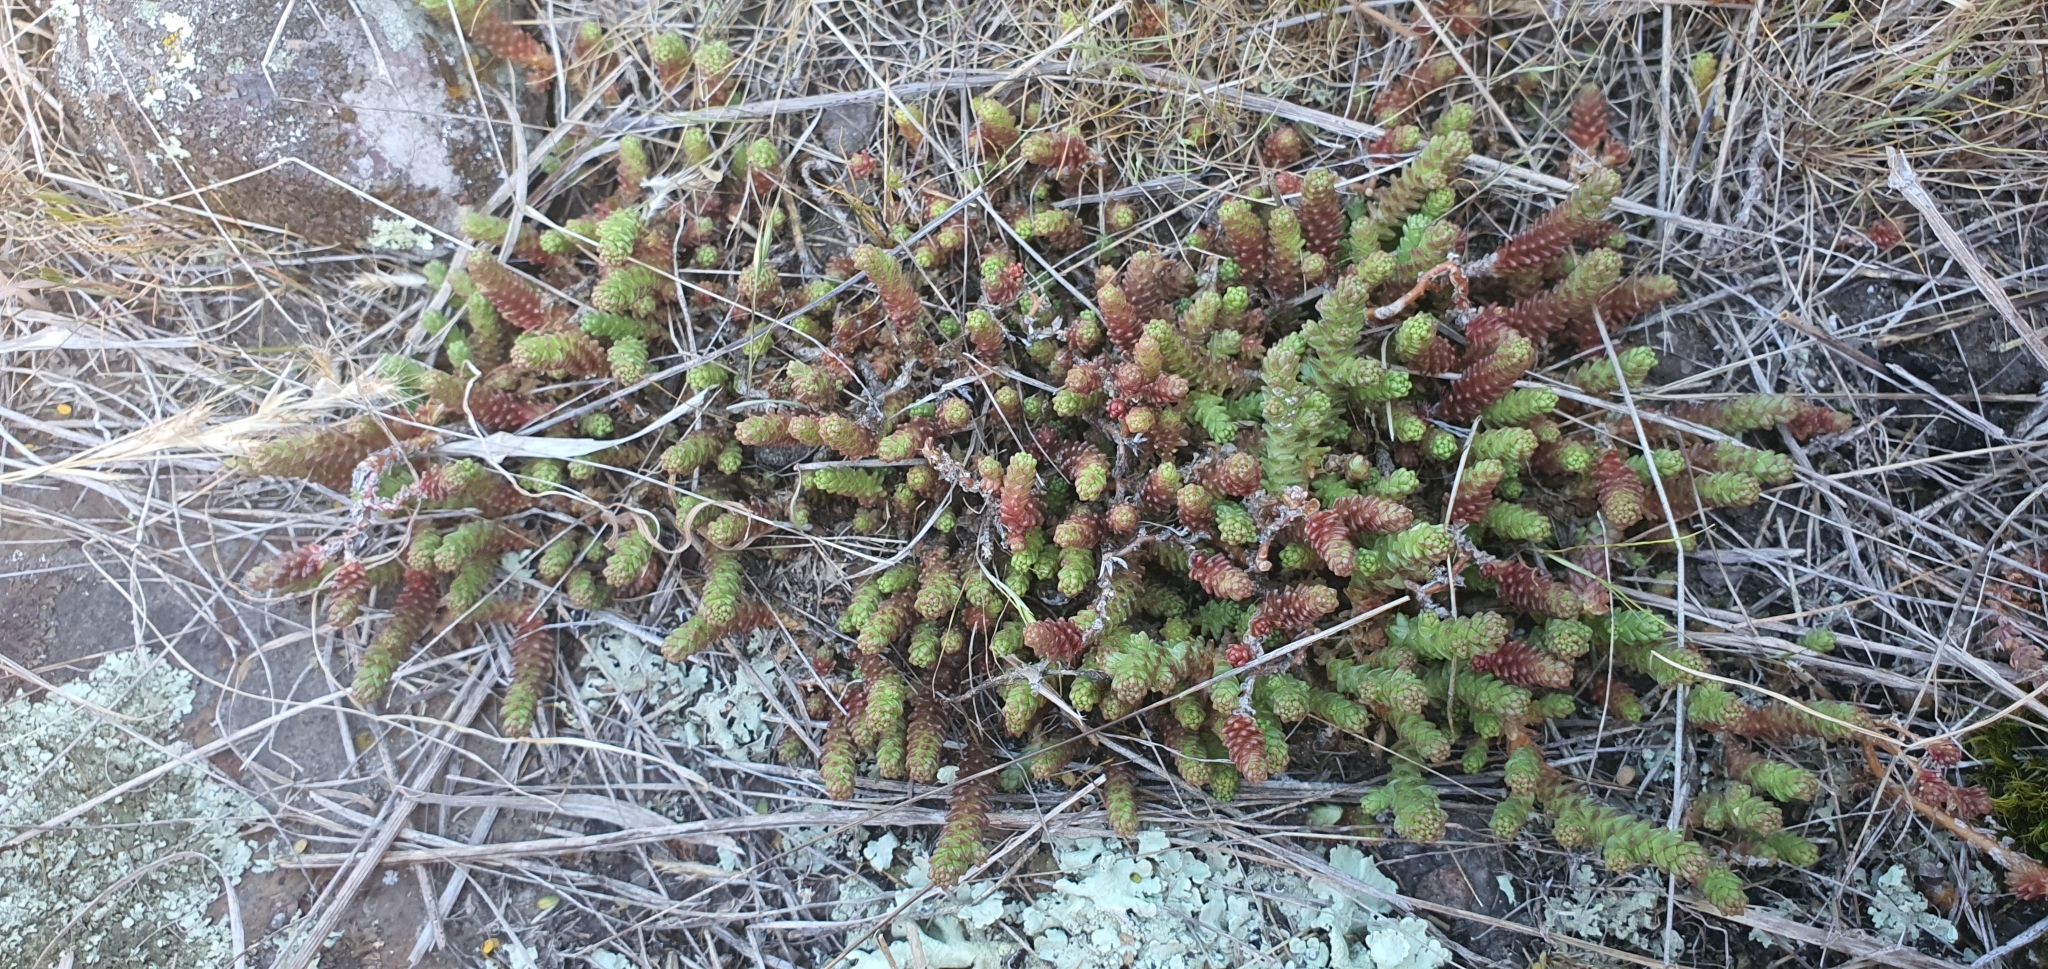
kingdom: Plantae
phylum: Tracheophyta
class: Magnoliopsida
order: Saxifragales
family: Crassulaceae
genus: Sedum
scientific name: Sedum acre
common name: Biting stonecrop
